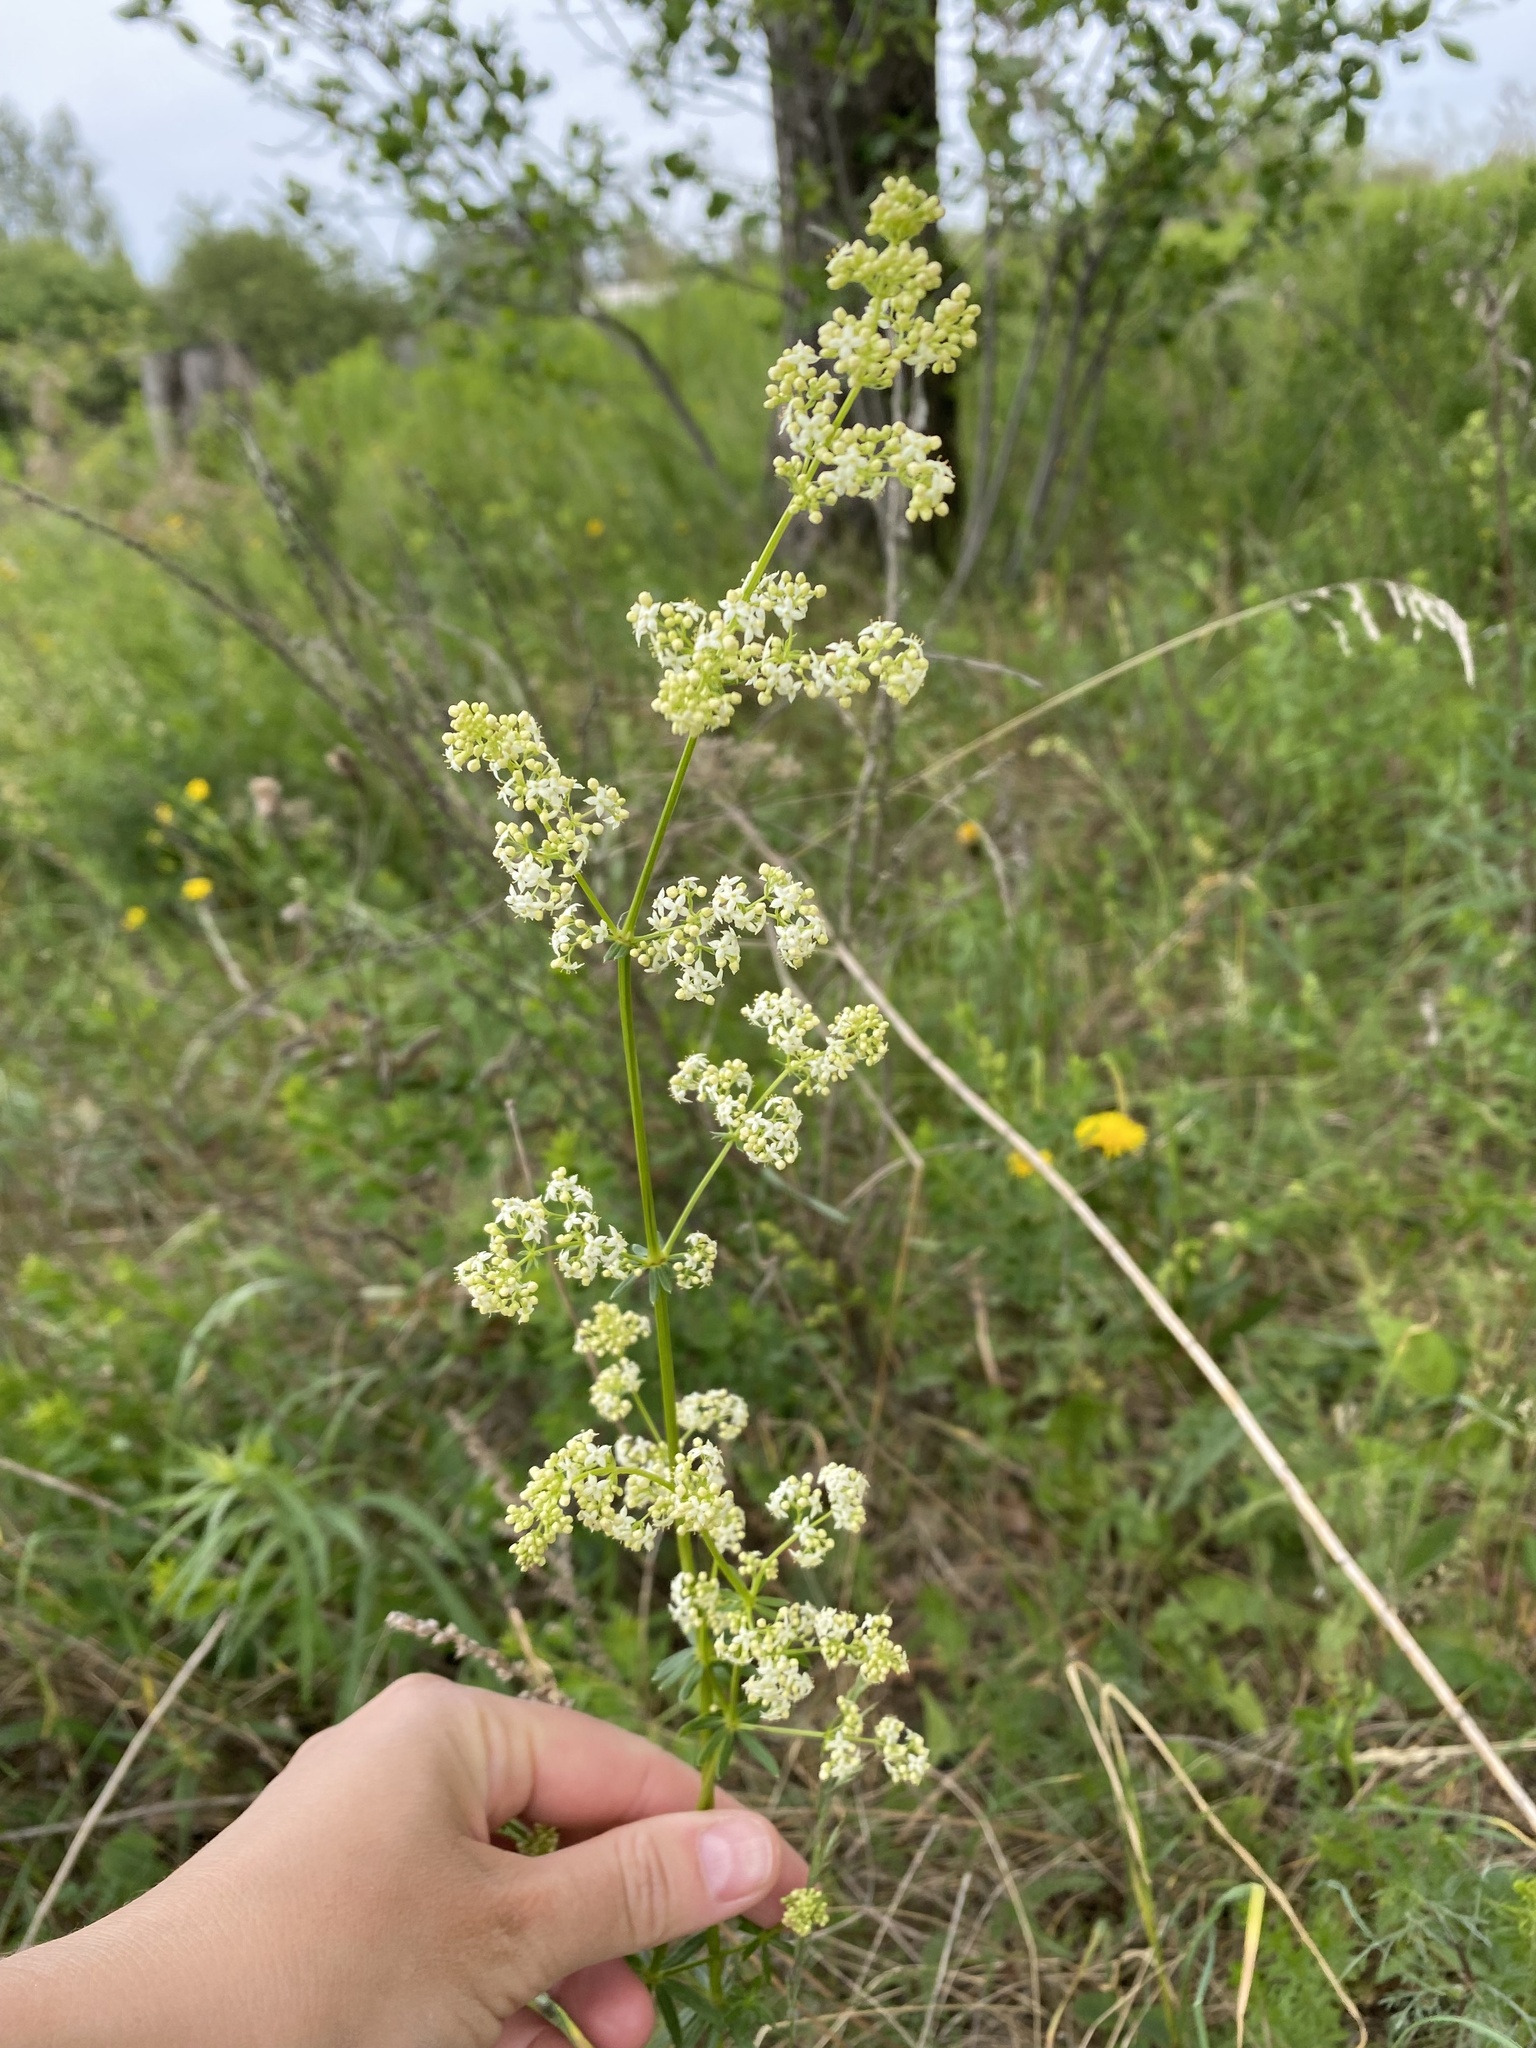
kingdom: Plantae
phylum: Tracheophyta
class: Magnoliopsida
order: Gentianales
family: Rubiaceae
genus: Galium
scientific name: Galium mollugo
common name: Hedge bedstraw
